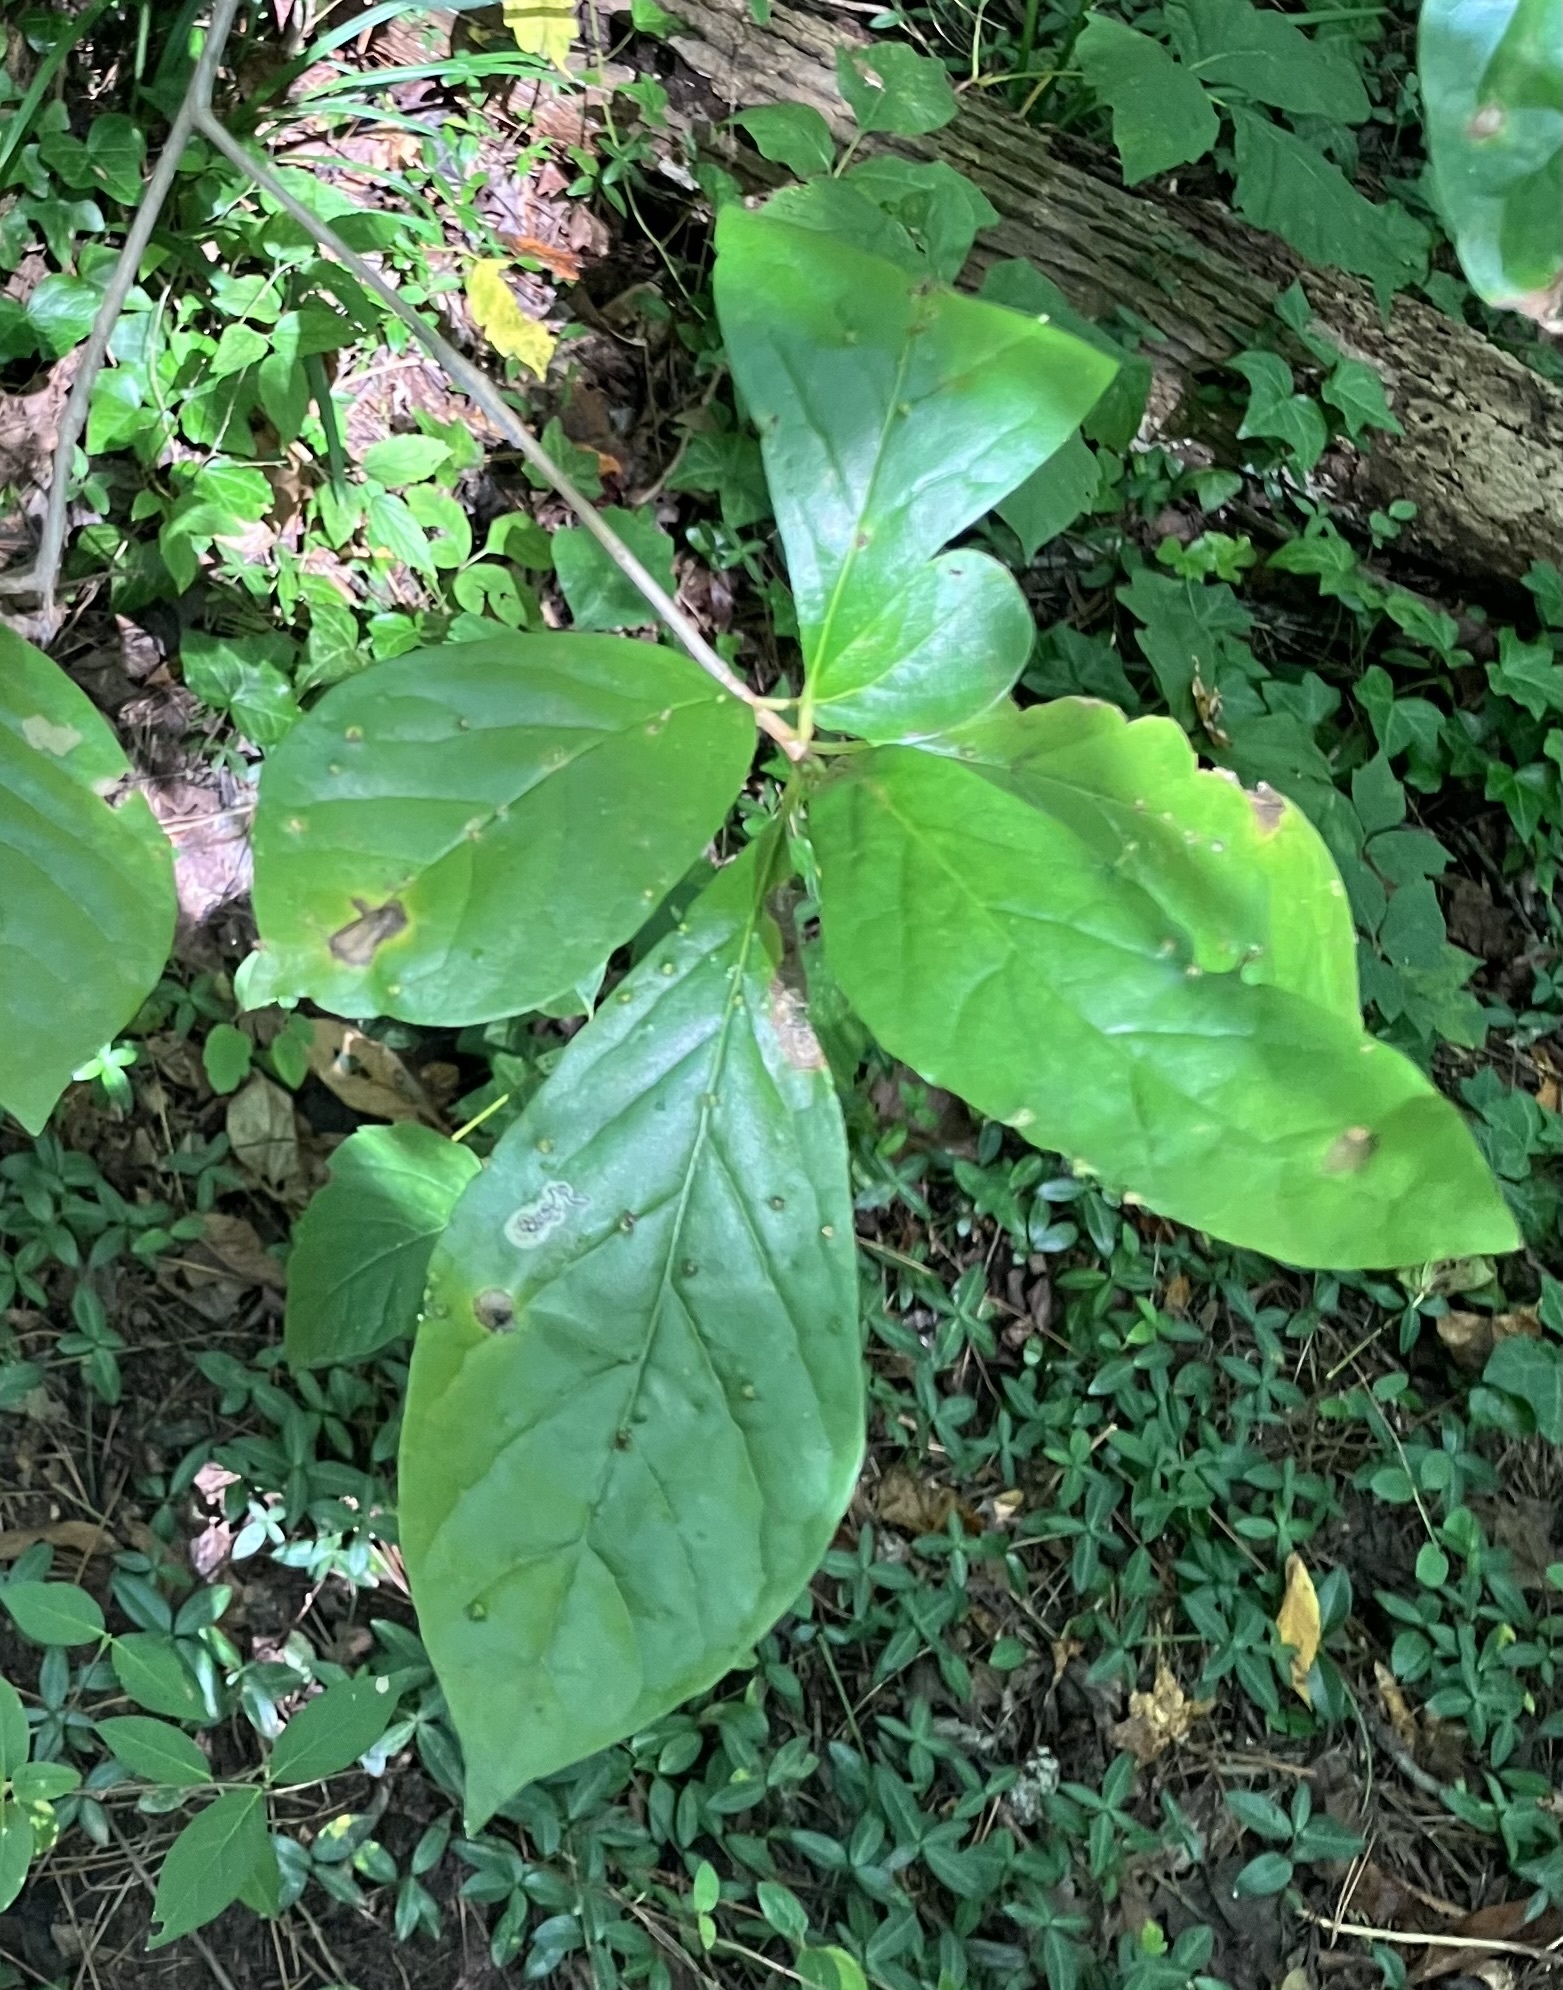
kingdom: Animalia
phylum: Arthropoda
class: Insecta
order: Lepidoptera
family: Nepticulidae
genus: Ectoedemia
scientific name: Ectoedemia nyssaefoliella
